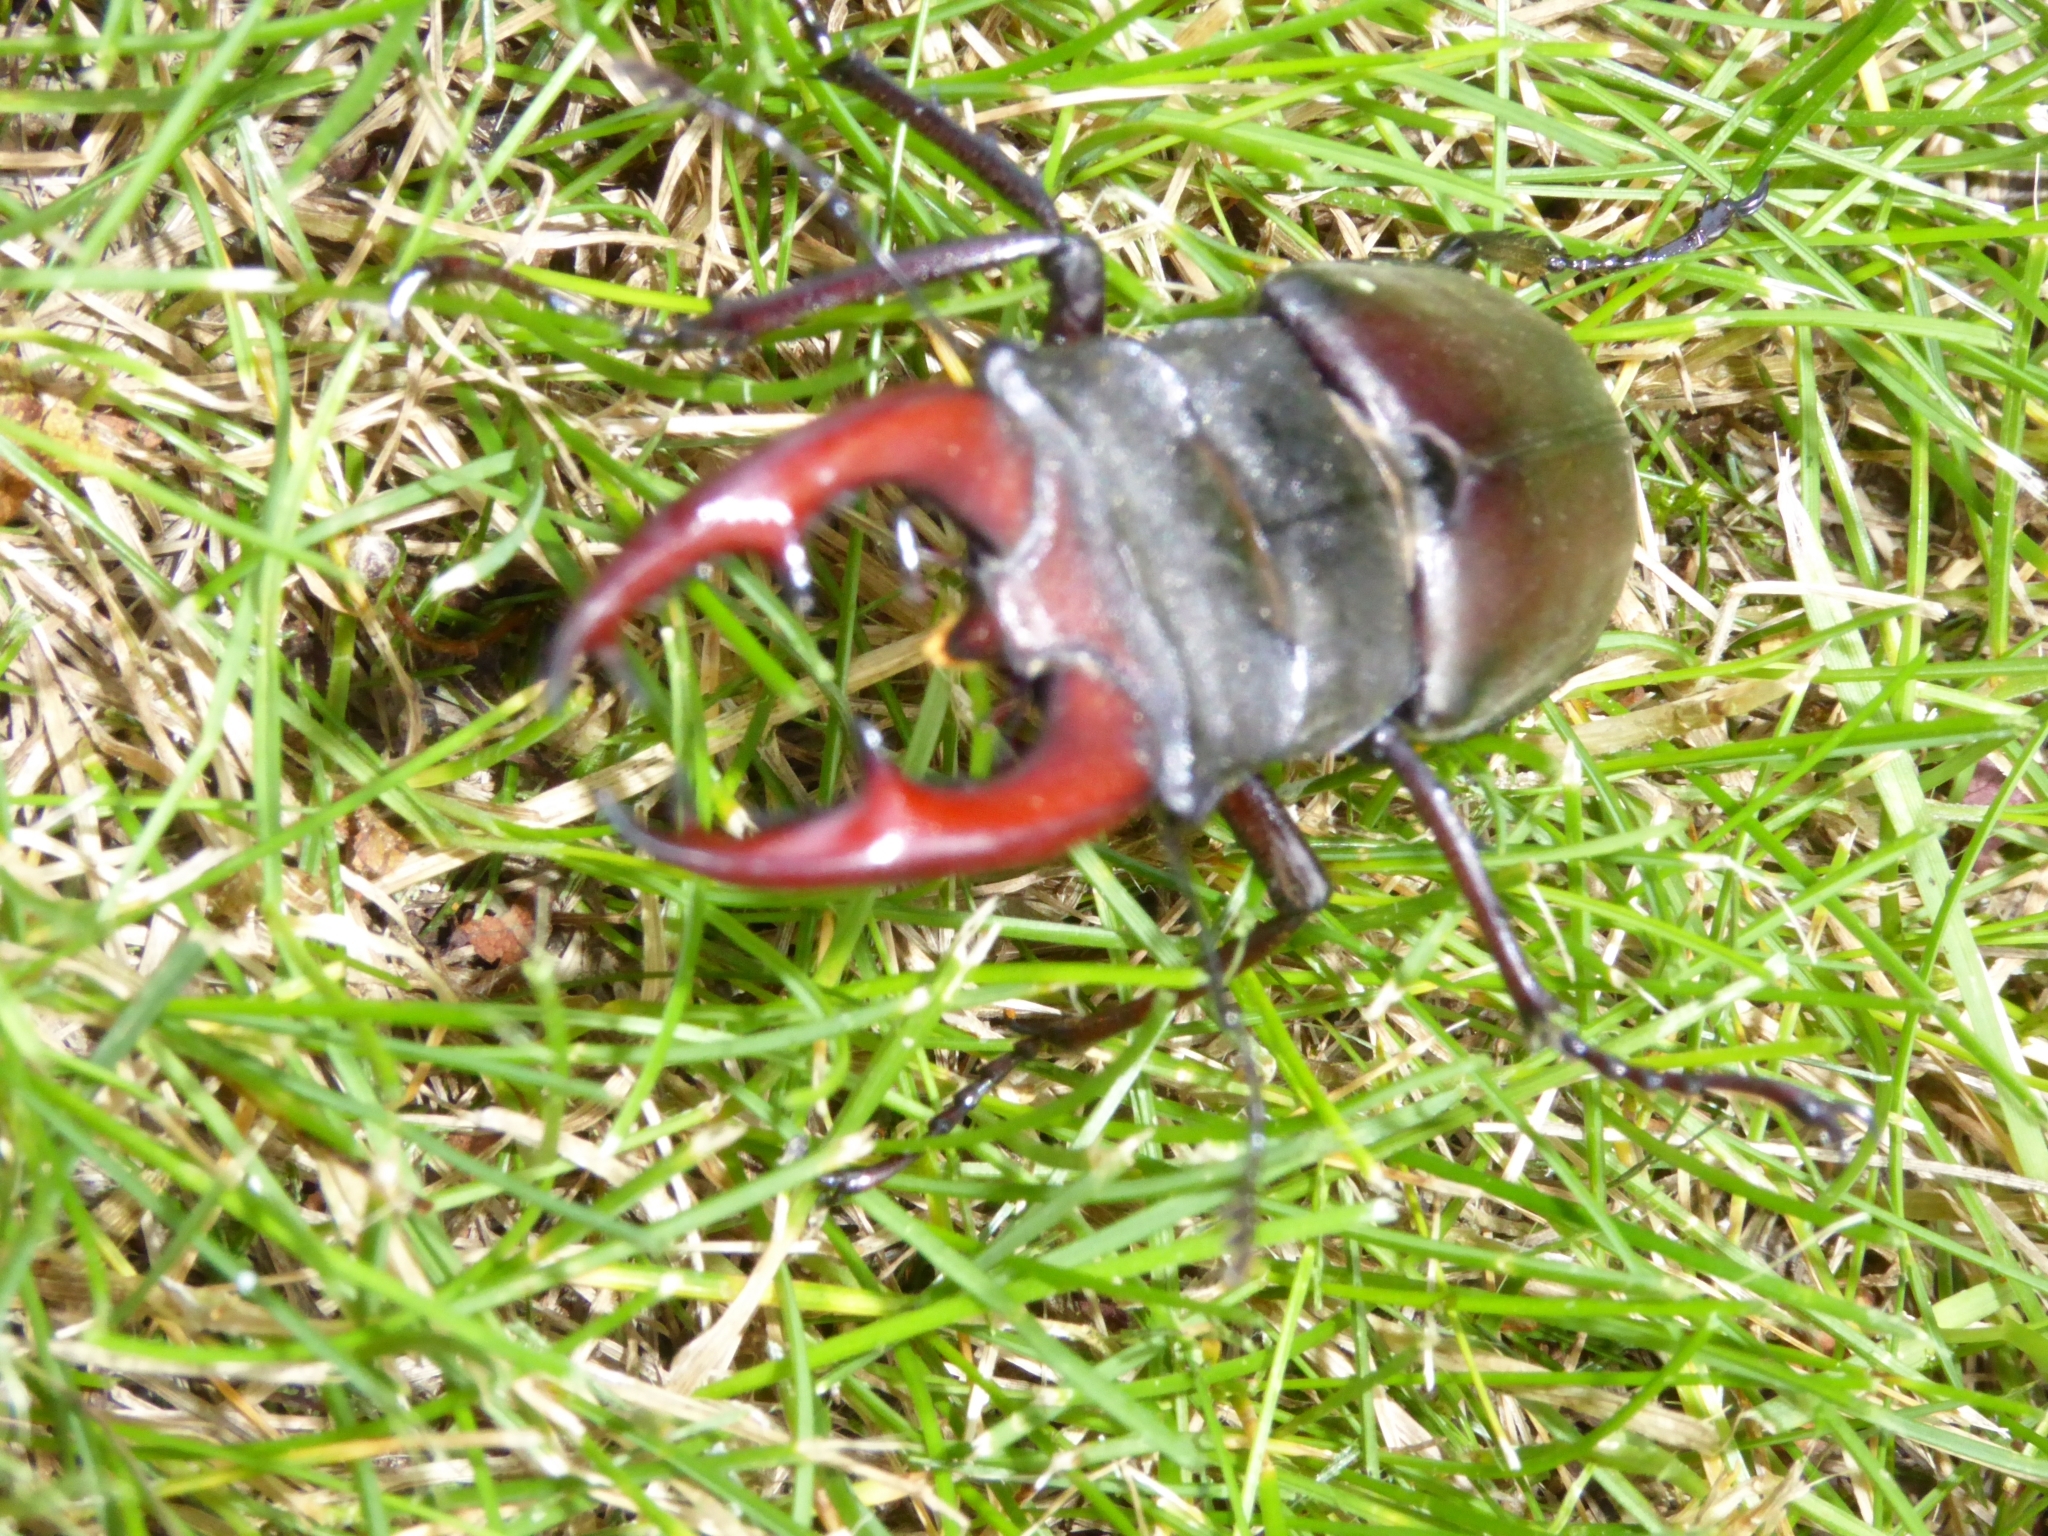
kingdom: Animalia
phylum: Arthropoda
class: Insecta
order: Coleoptera
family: Lucanidae
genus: Lucanus
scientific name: Lucanus cervus
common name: Stag beetle
